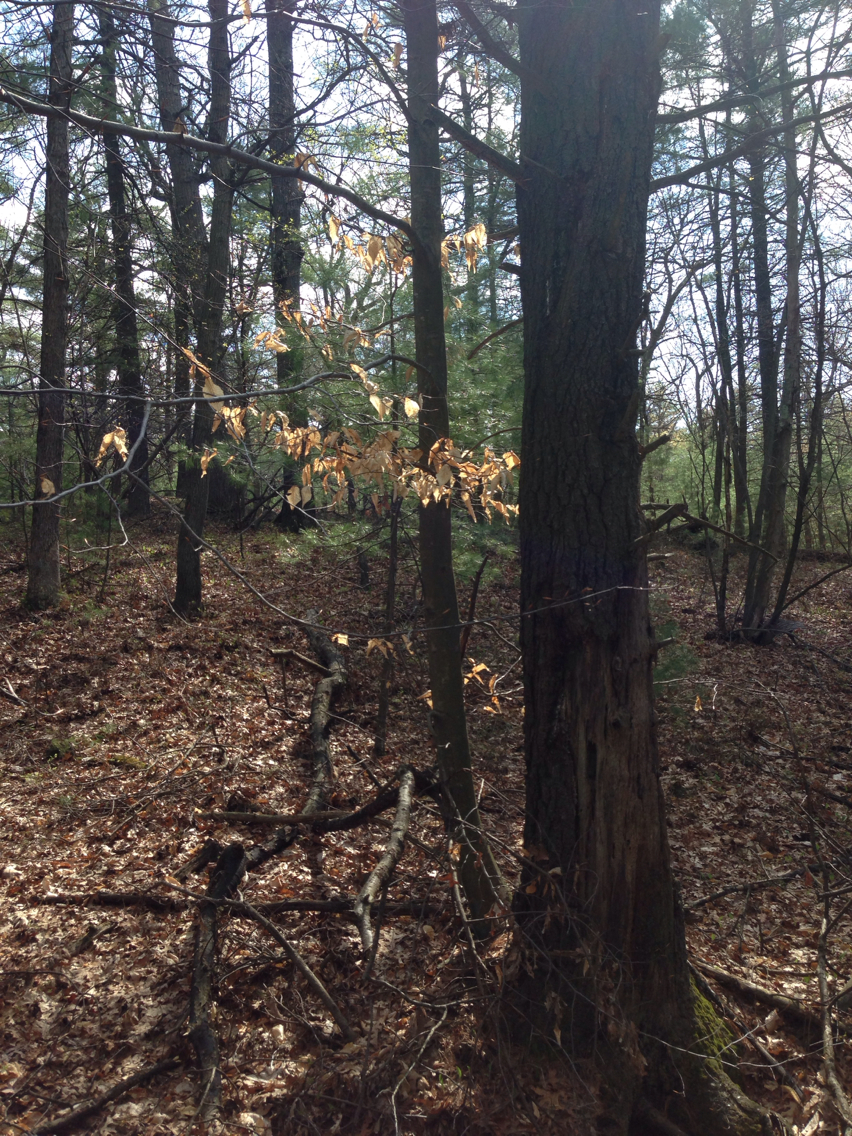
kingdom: Plantae
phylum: Tracheophyta
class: Magnoliopsida
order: Fagales
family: Fagaceae
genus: Fagus
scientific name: Fagus grandifolia
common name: American beech
